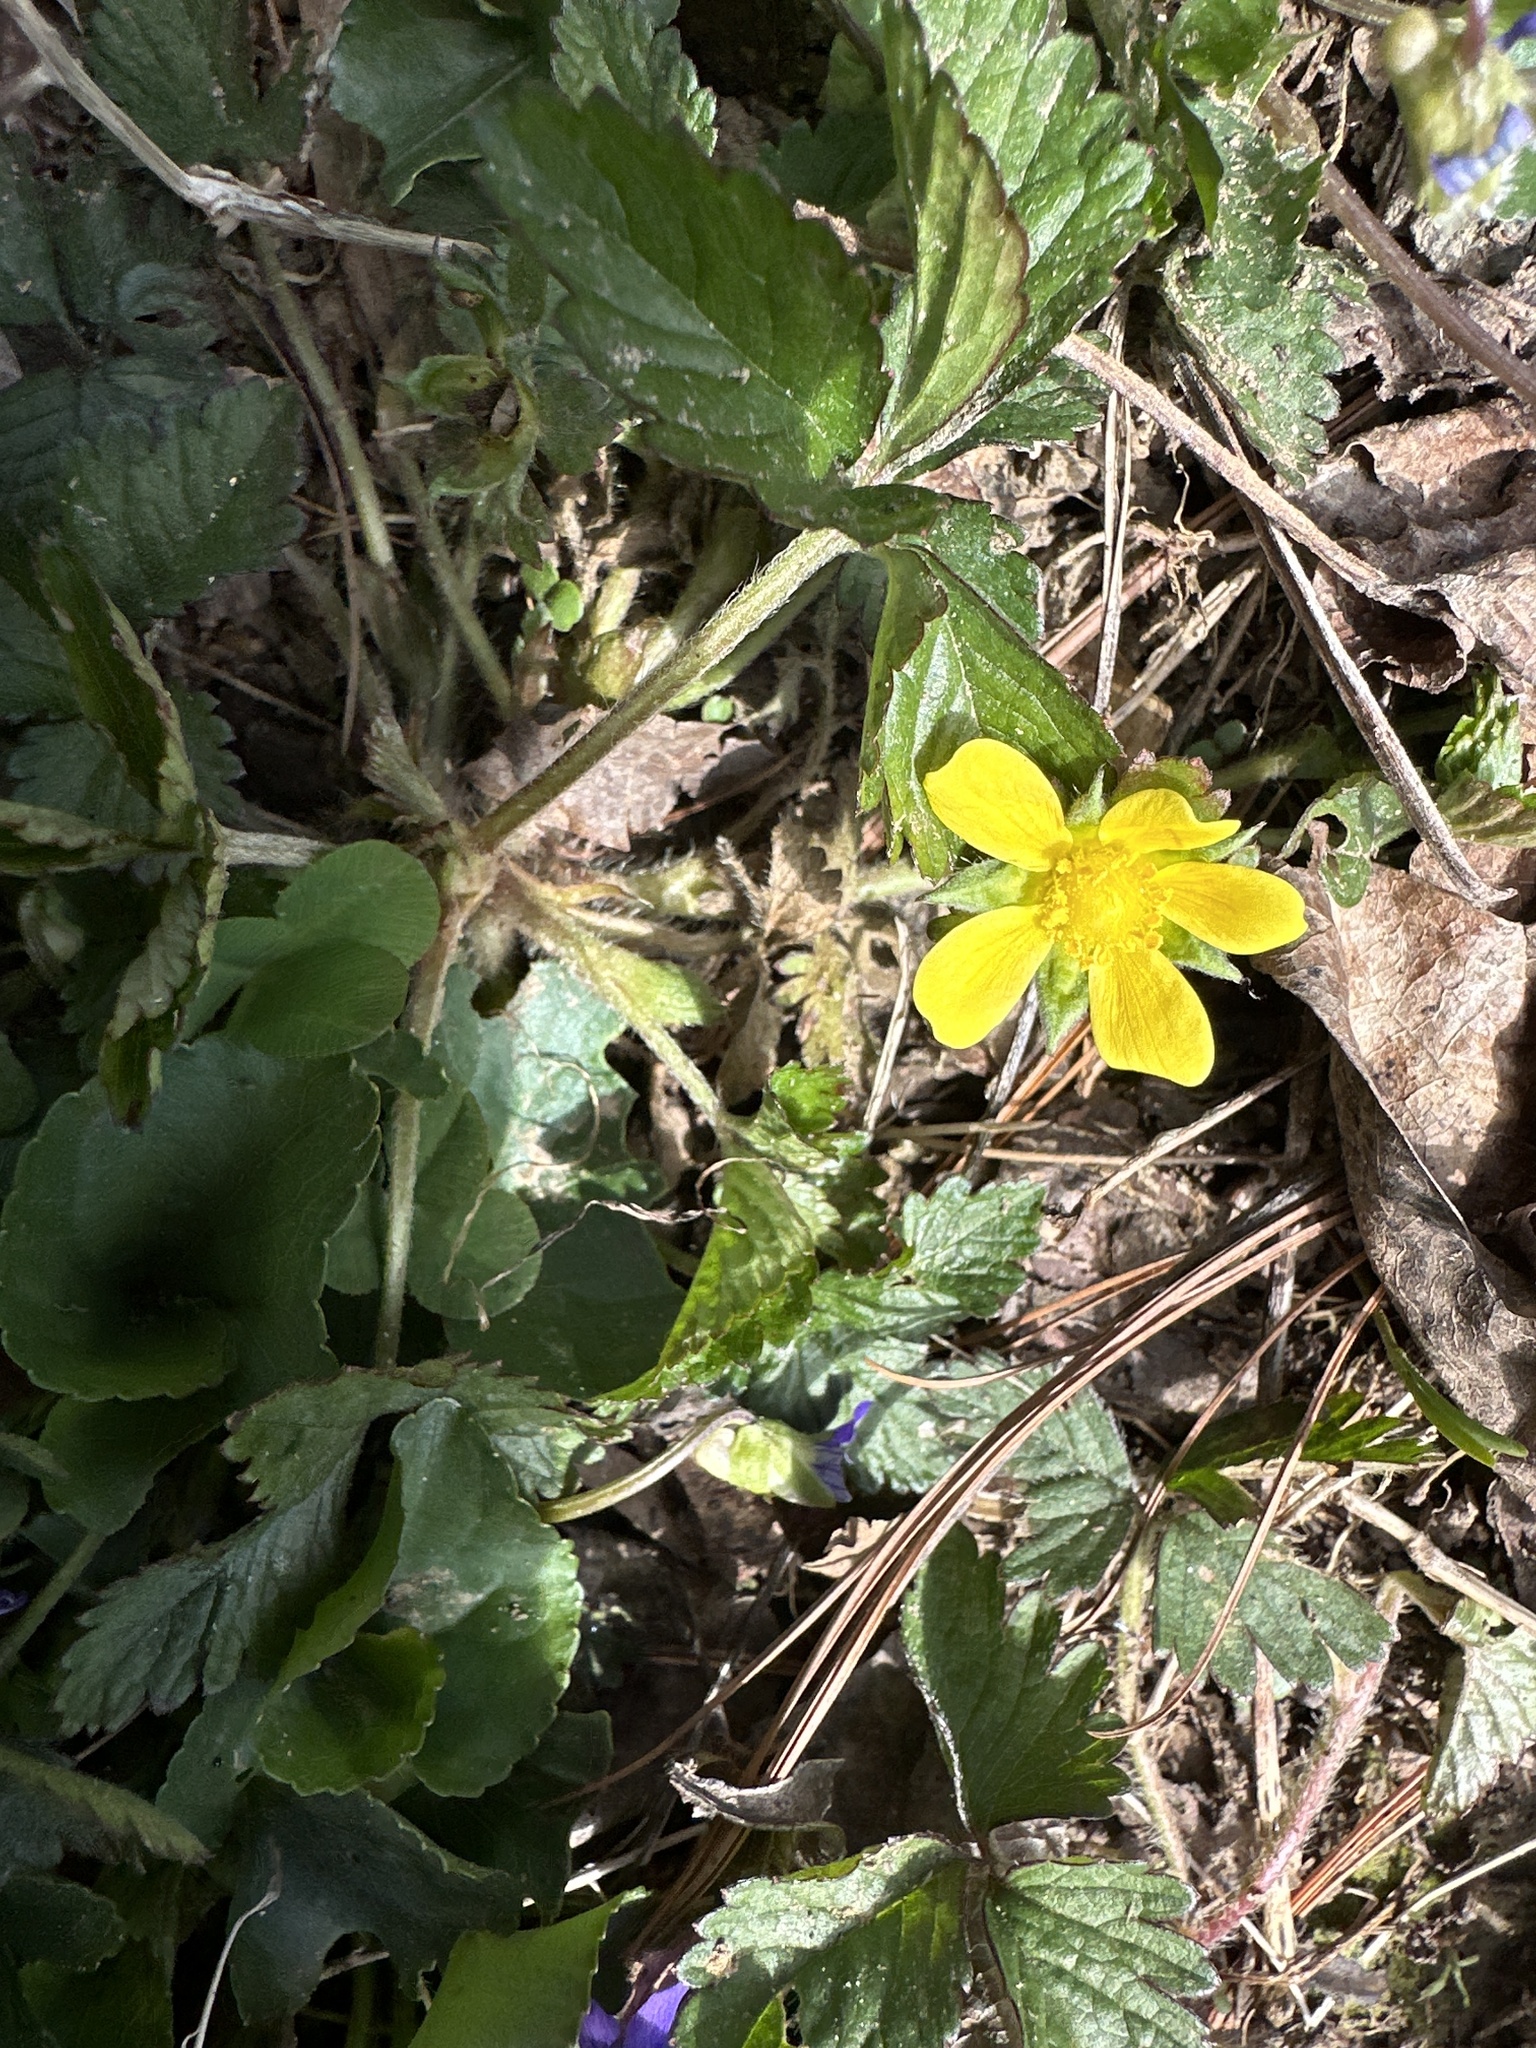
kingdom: Plantae
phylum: Tracheophyta
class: Magnoliopsida
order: Rosales
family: Rosaceae
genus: Potentilla
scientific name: Potentilla indica
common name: Yellow-flowered strawberry
